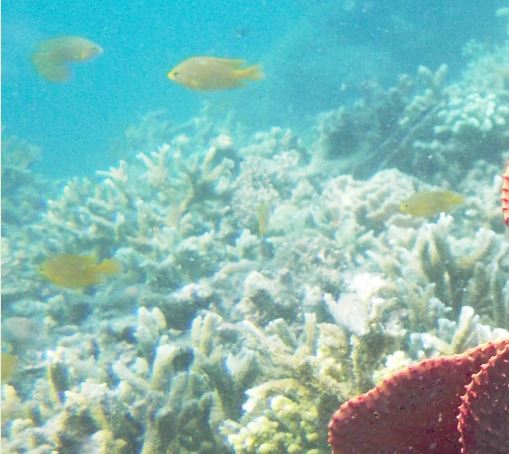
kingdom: Animalia
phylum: Chordata
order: Perciformes
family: Pomacentridae
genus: Pomacentrus
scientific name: Pomacentrus moluccensis
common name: Lemon damsel
